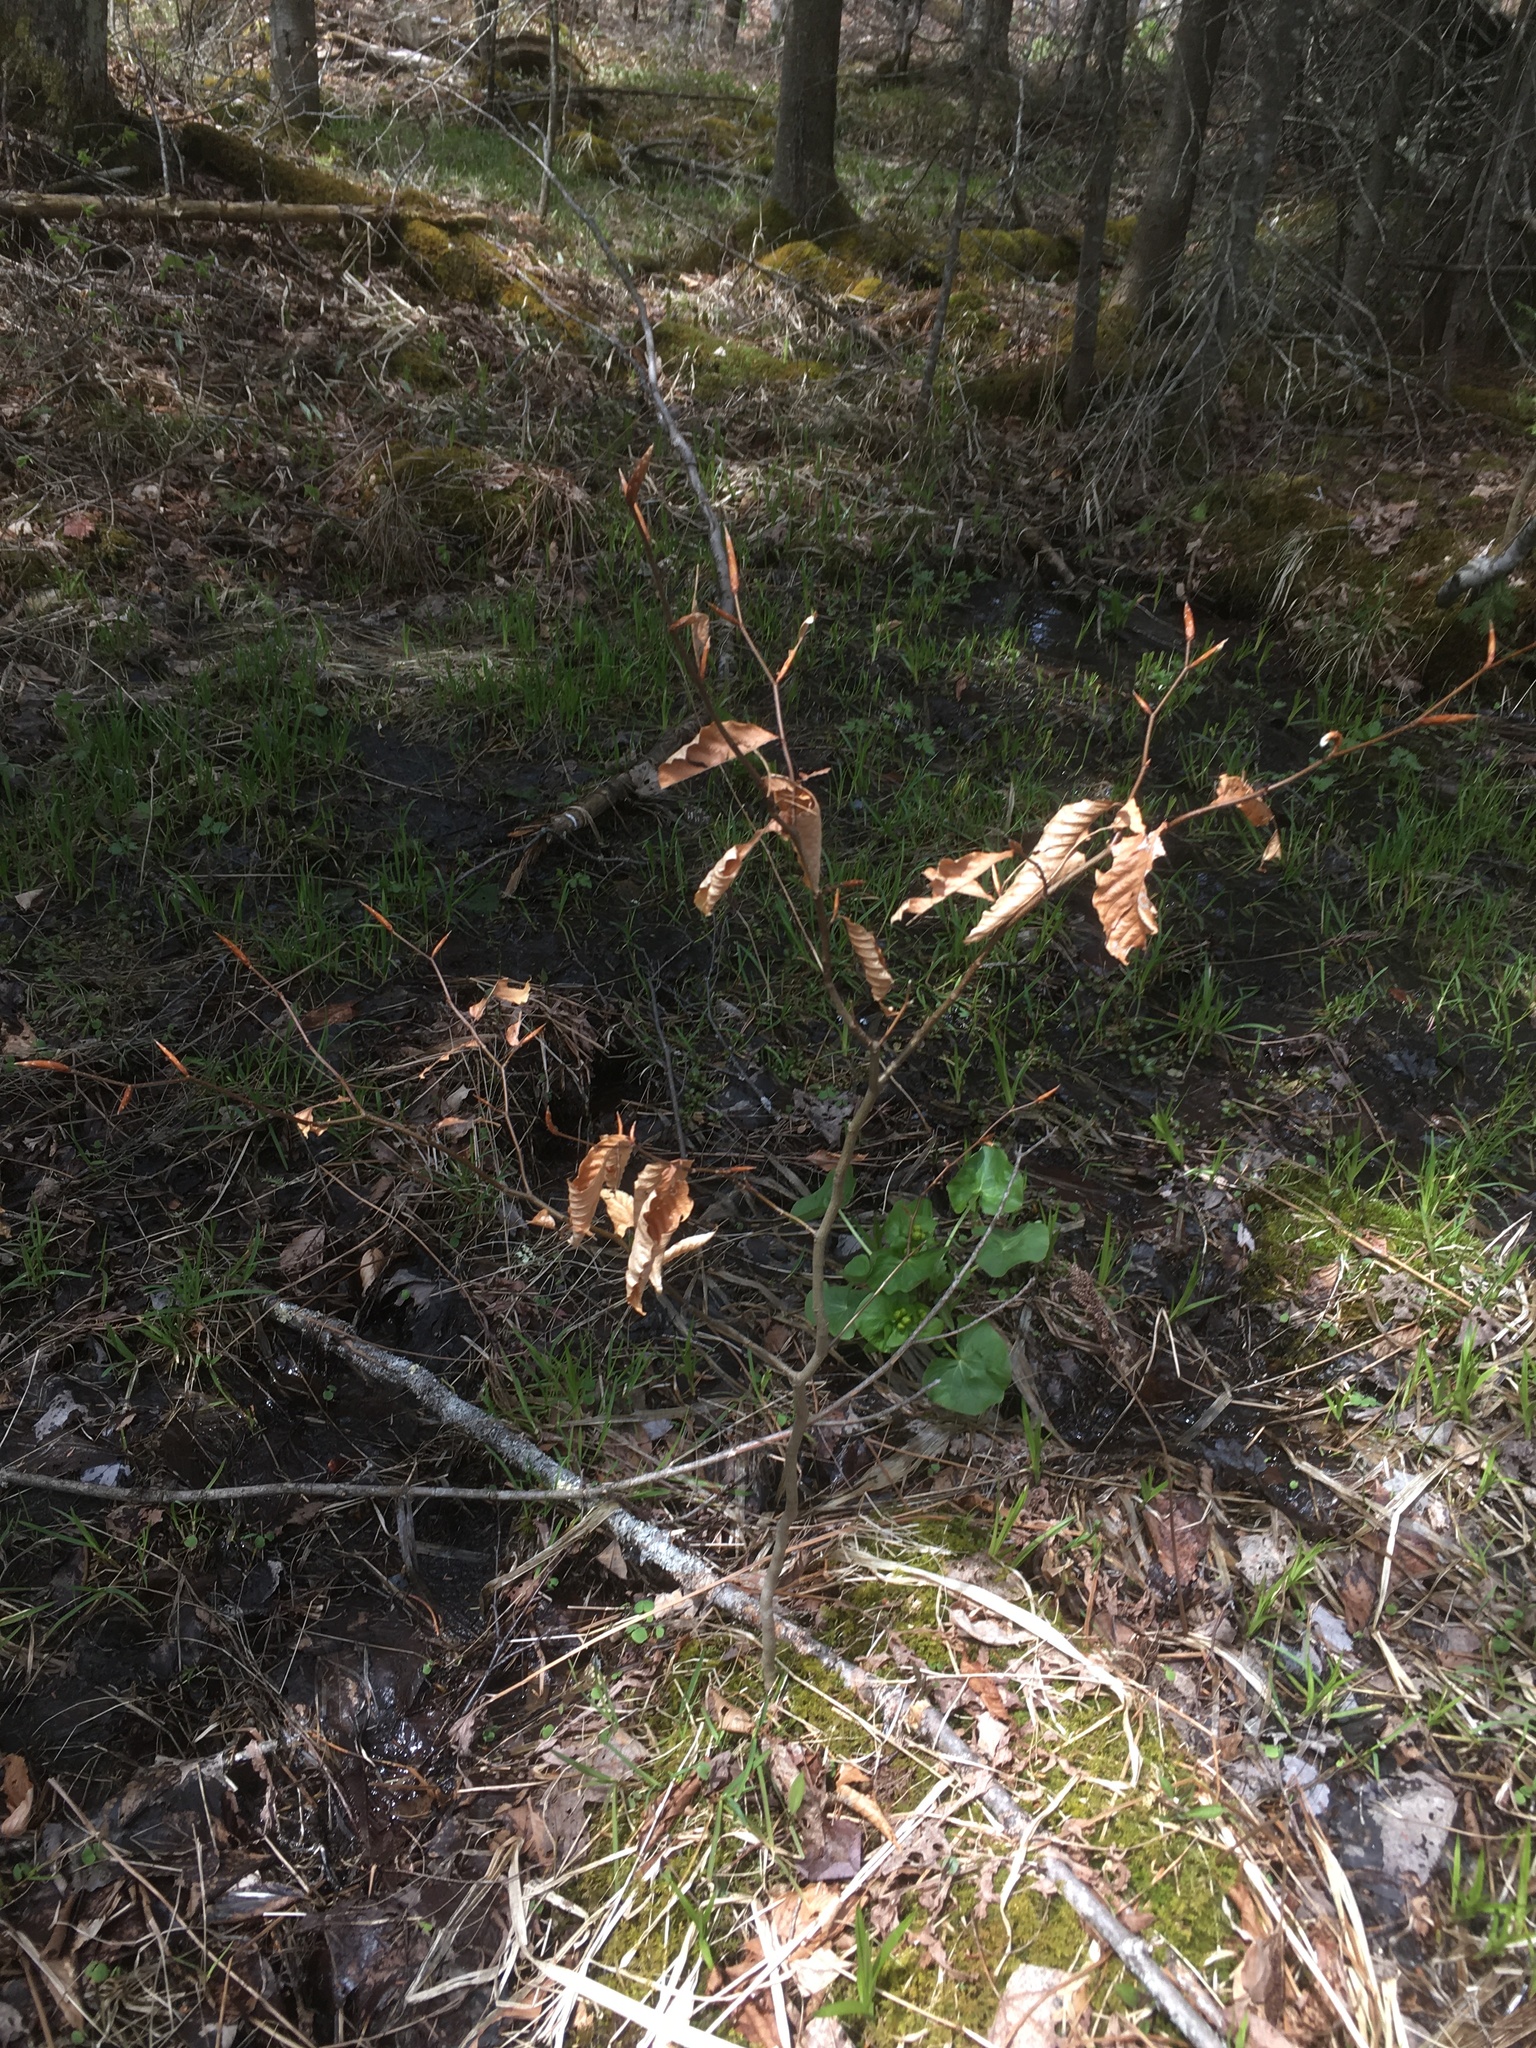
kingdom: Plantae
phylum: Tracheophyta
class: Magnoliopsida
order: Fagales
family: Fagaceae
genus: Fagus
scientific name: Fagus grandifolia
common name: American beech
